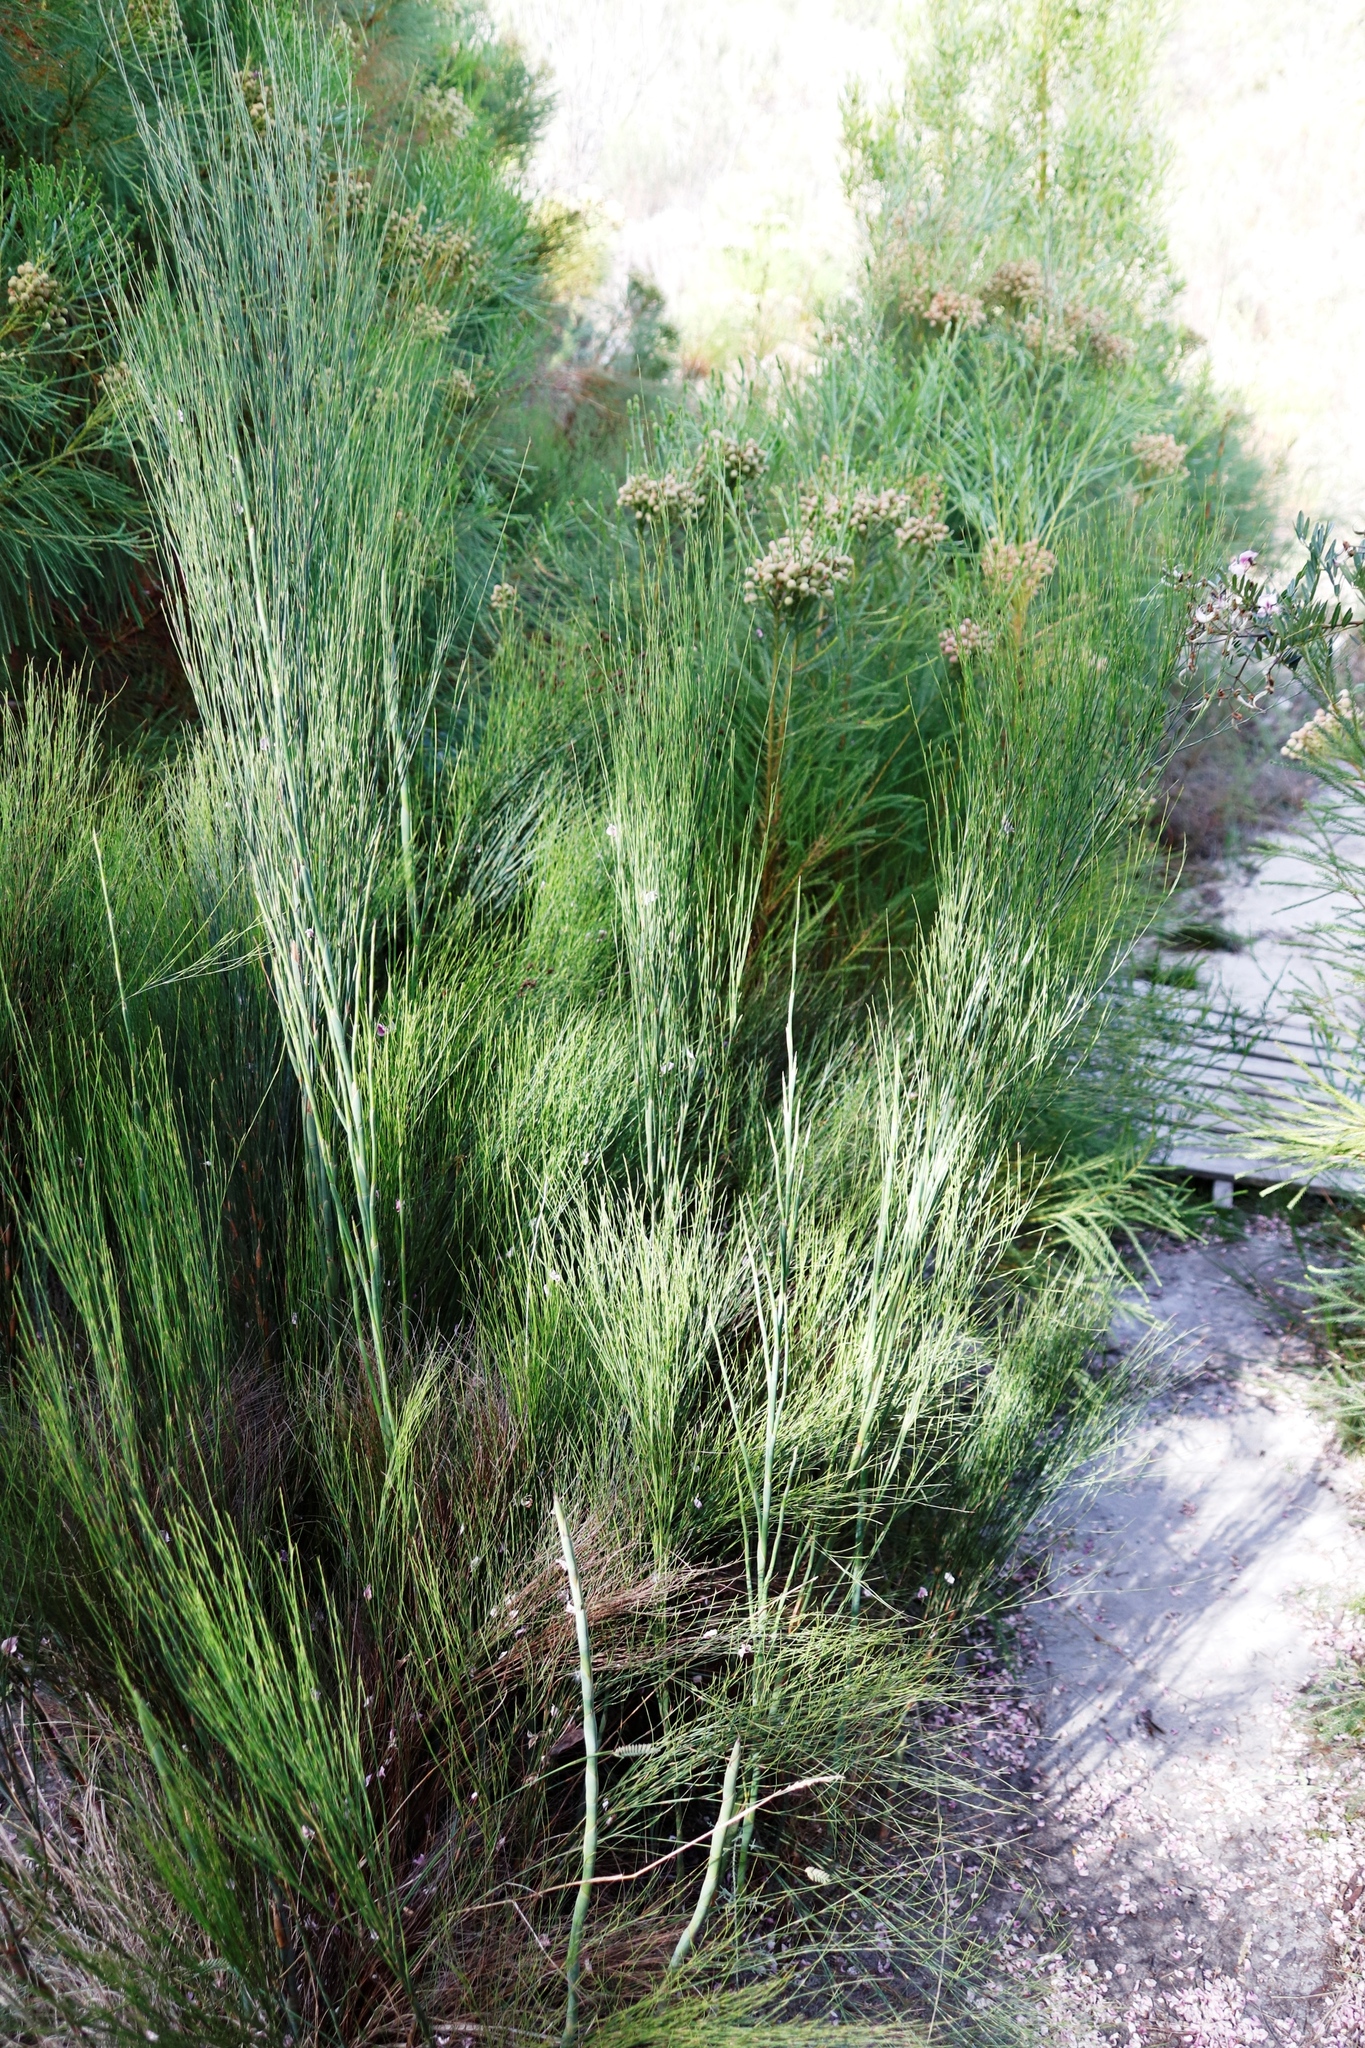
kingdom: Plantae
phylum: Tracheophyta
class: Liliopsida
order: Poales
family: Restionaceae
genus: Cannomois
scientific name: Cannomois virgata
